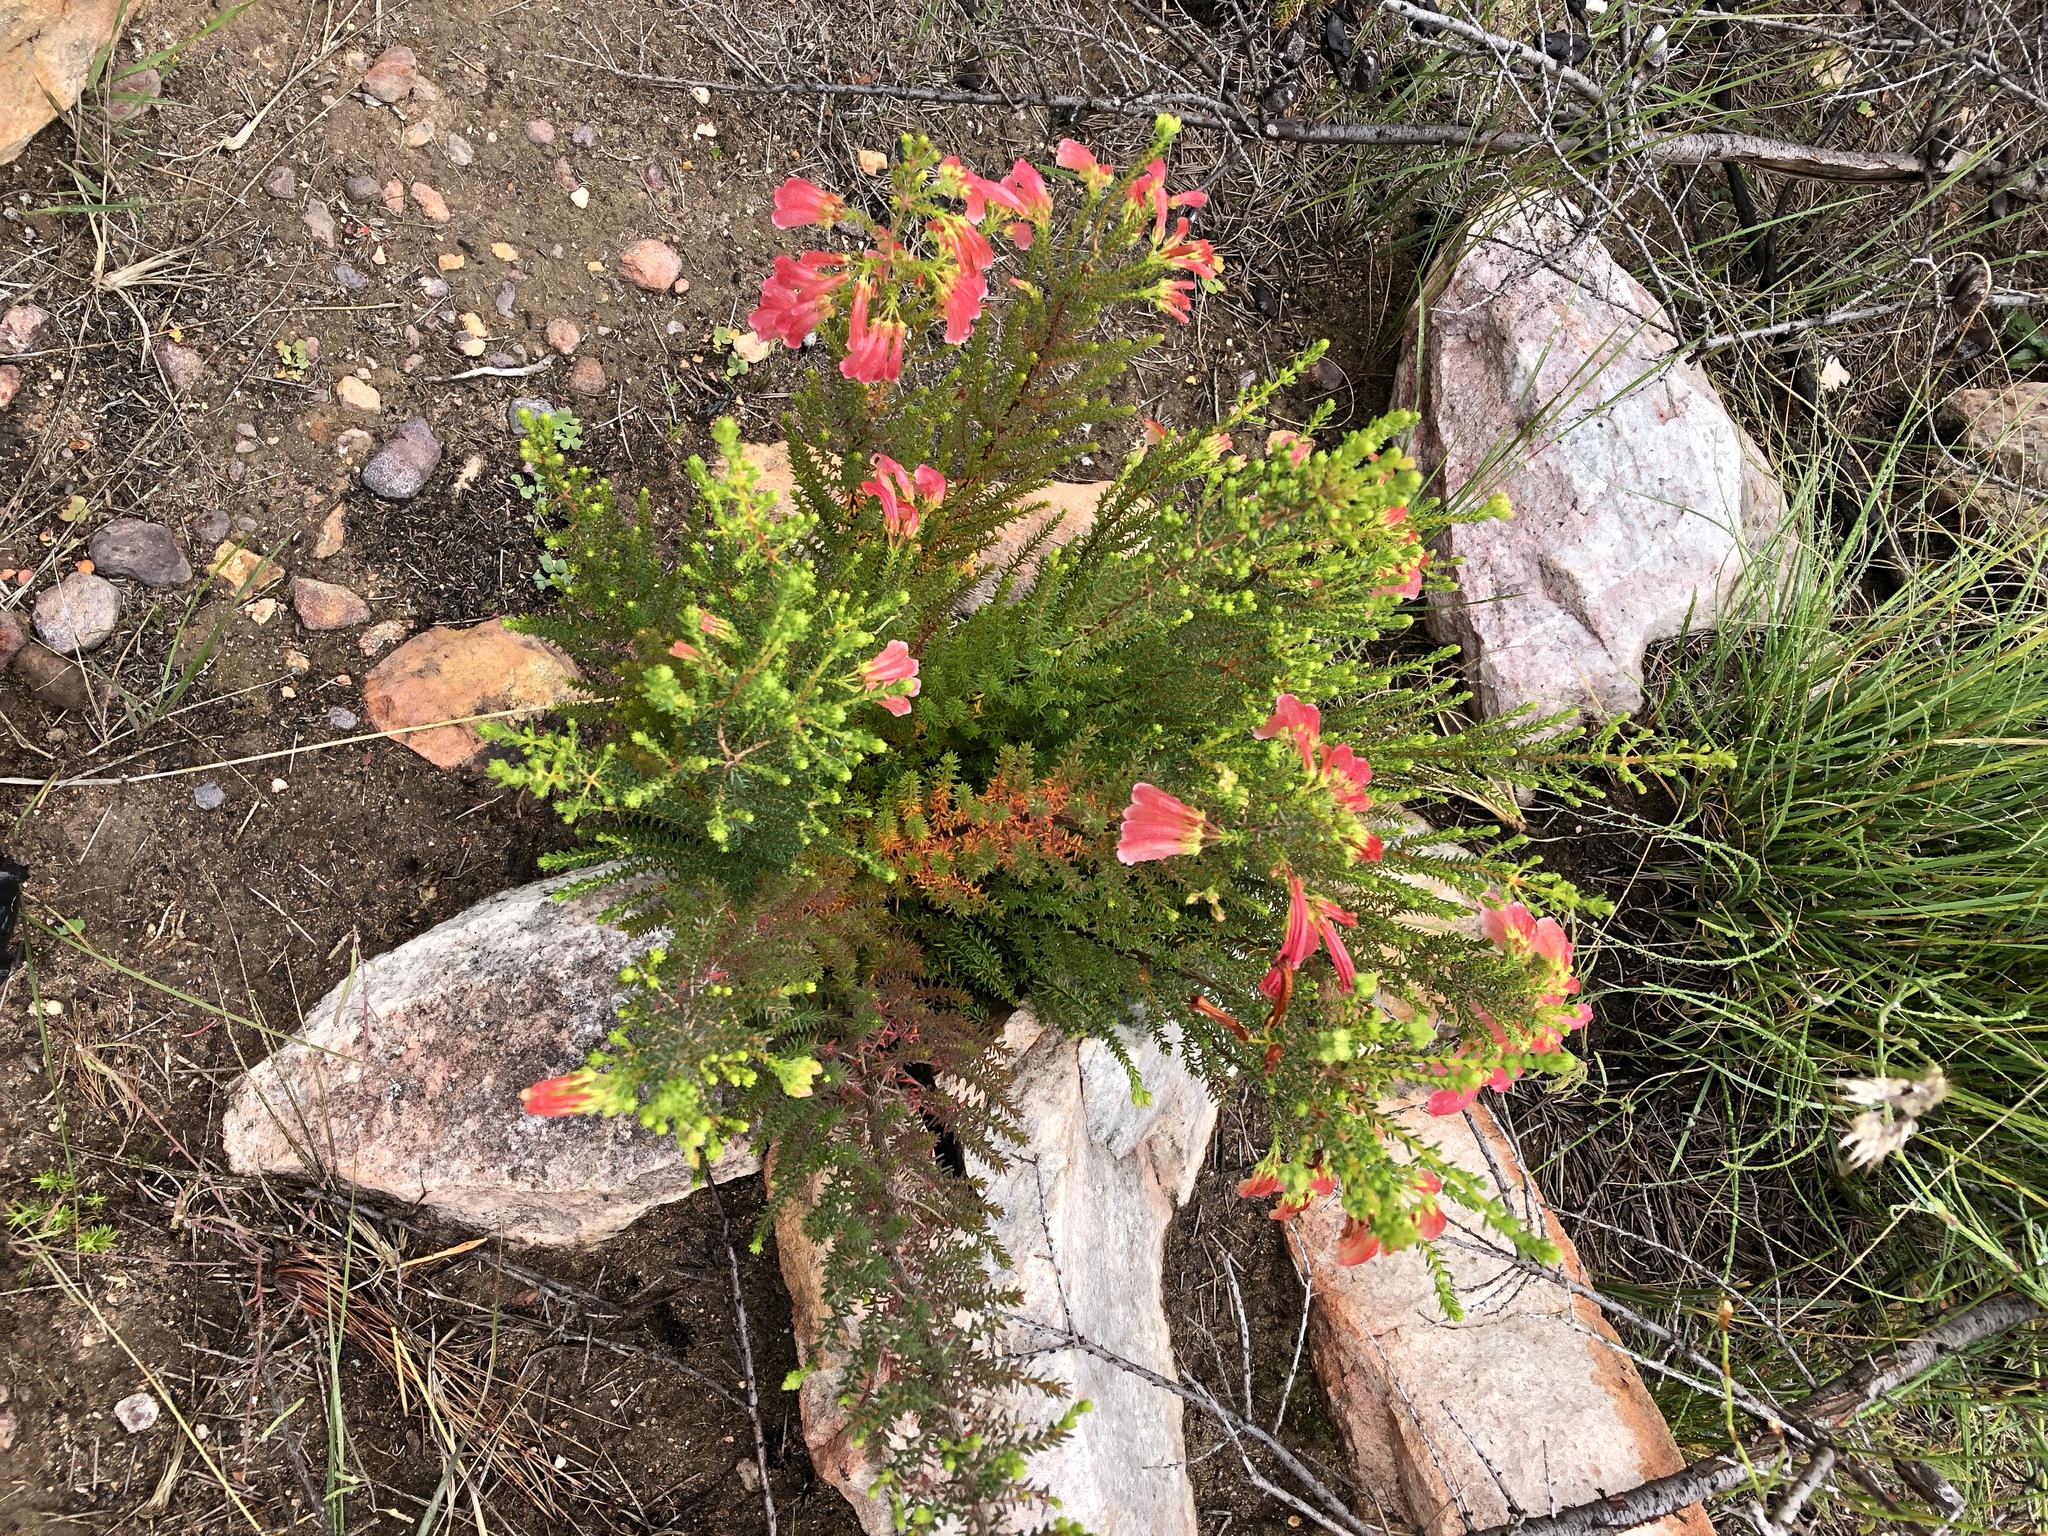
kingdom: Plantae
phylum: Tracheophyta
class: Magnoliopsida
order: Ericales
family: Ericaceae
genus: Erica
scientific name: Erica glandulosa
